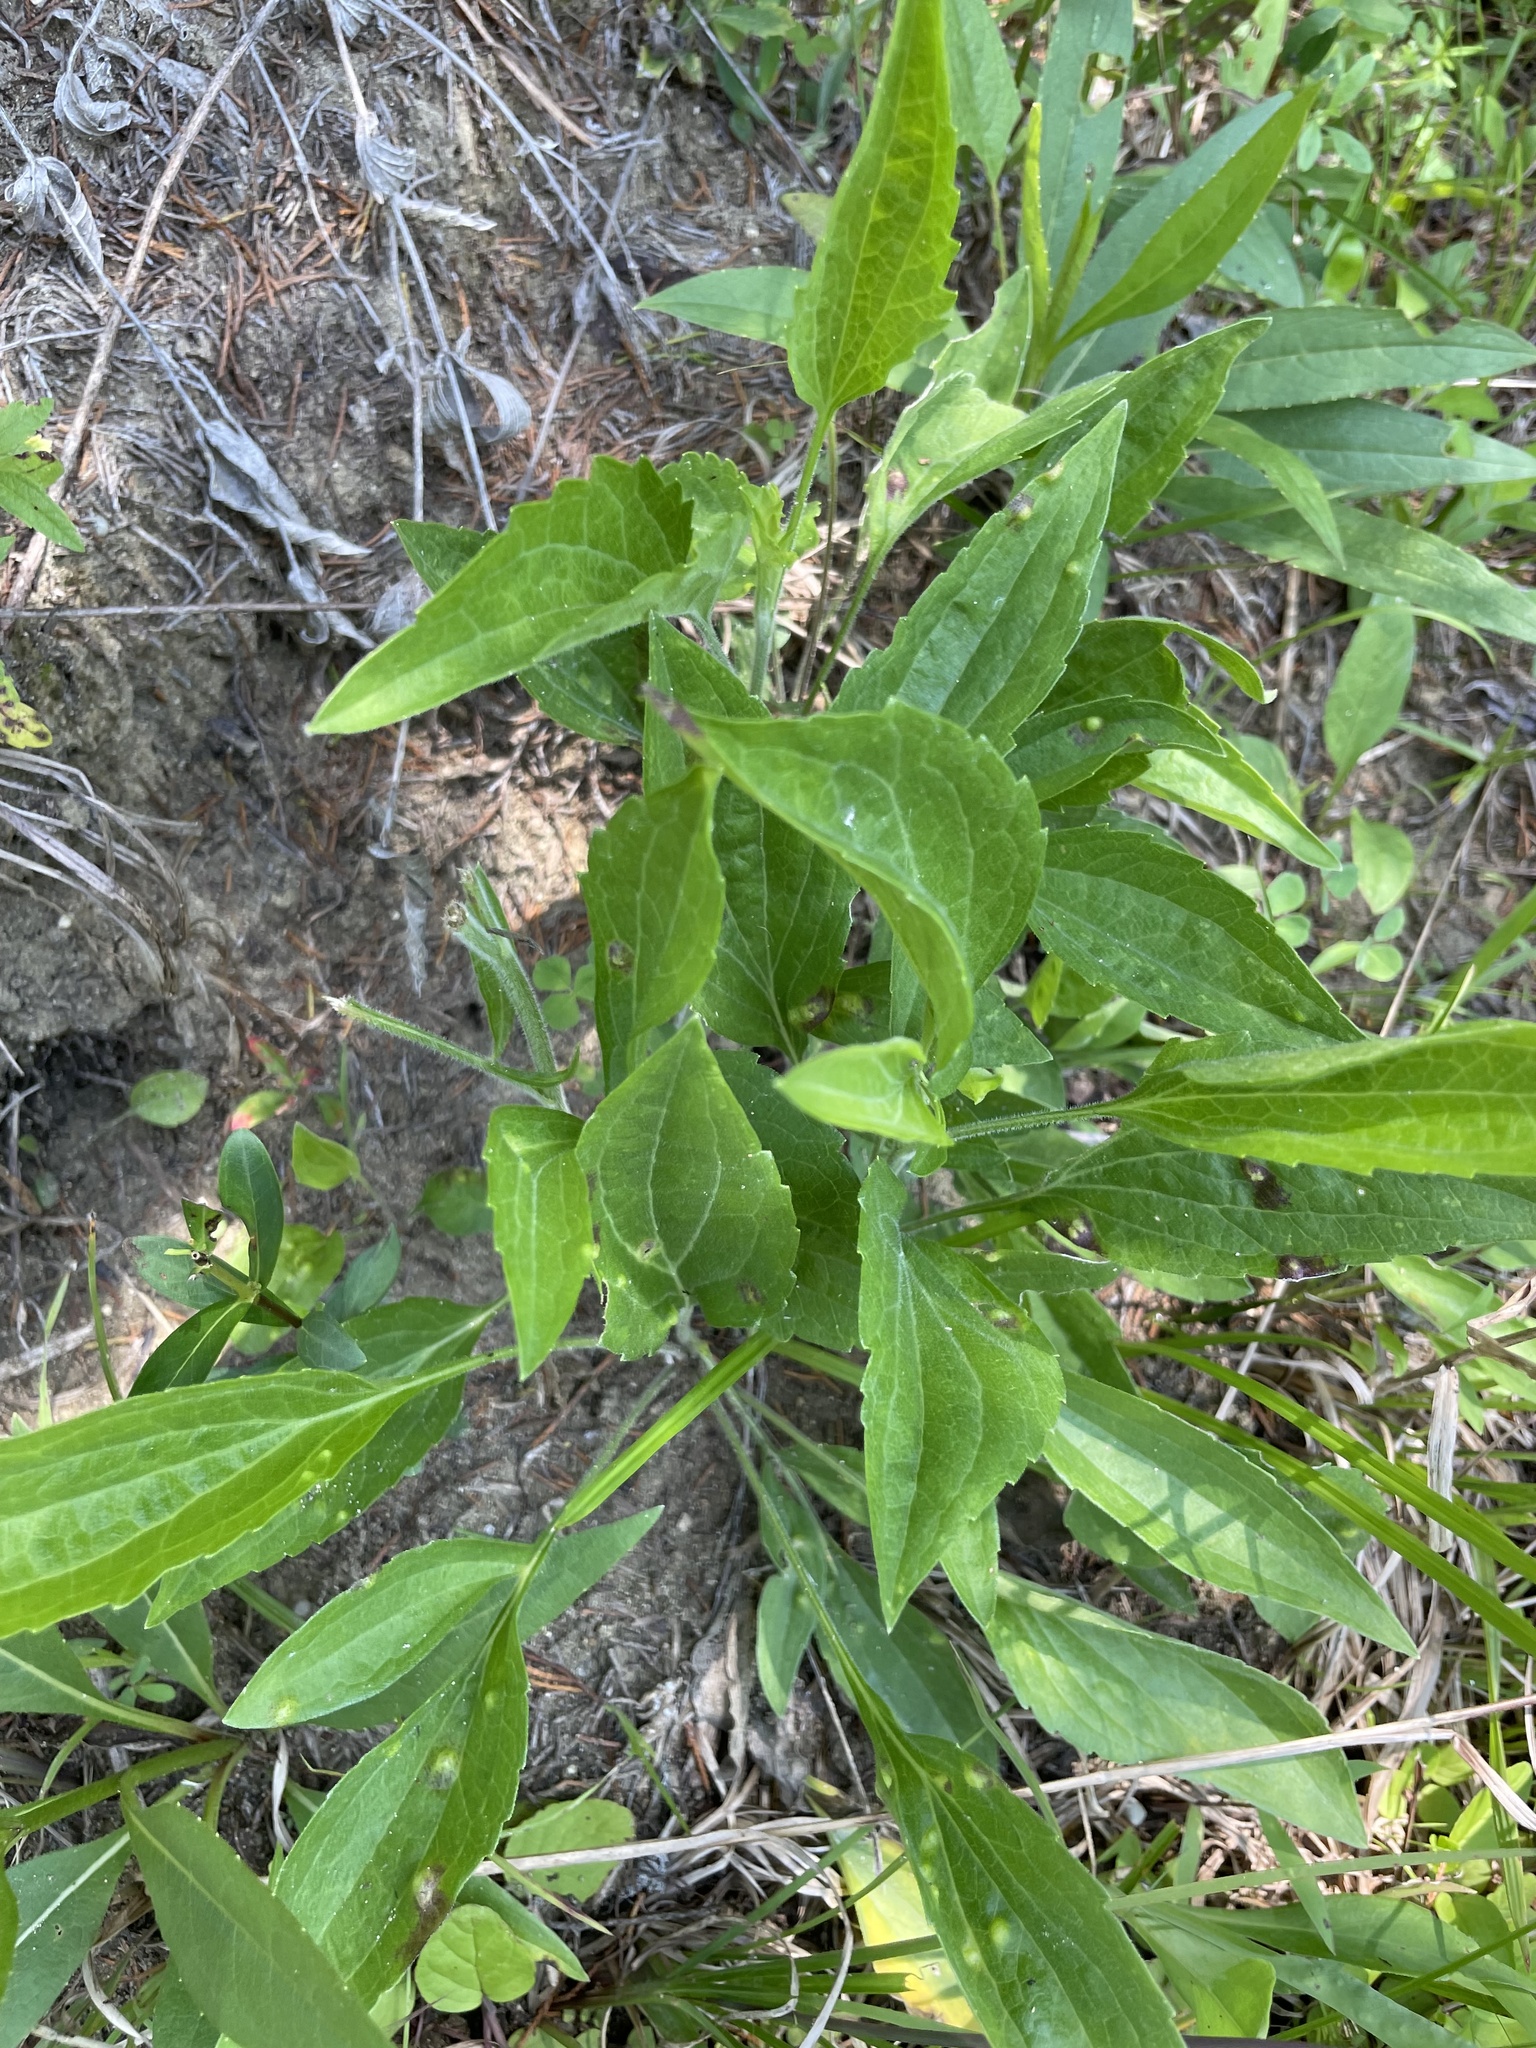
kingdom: Plantae
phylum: Tracheophyta
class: Magnoliopsida
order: Asterales
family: Asteraceae
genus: Ratibida
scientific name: Ratibida pinnata
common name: Drooping prairie-coneflower
